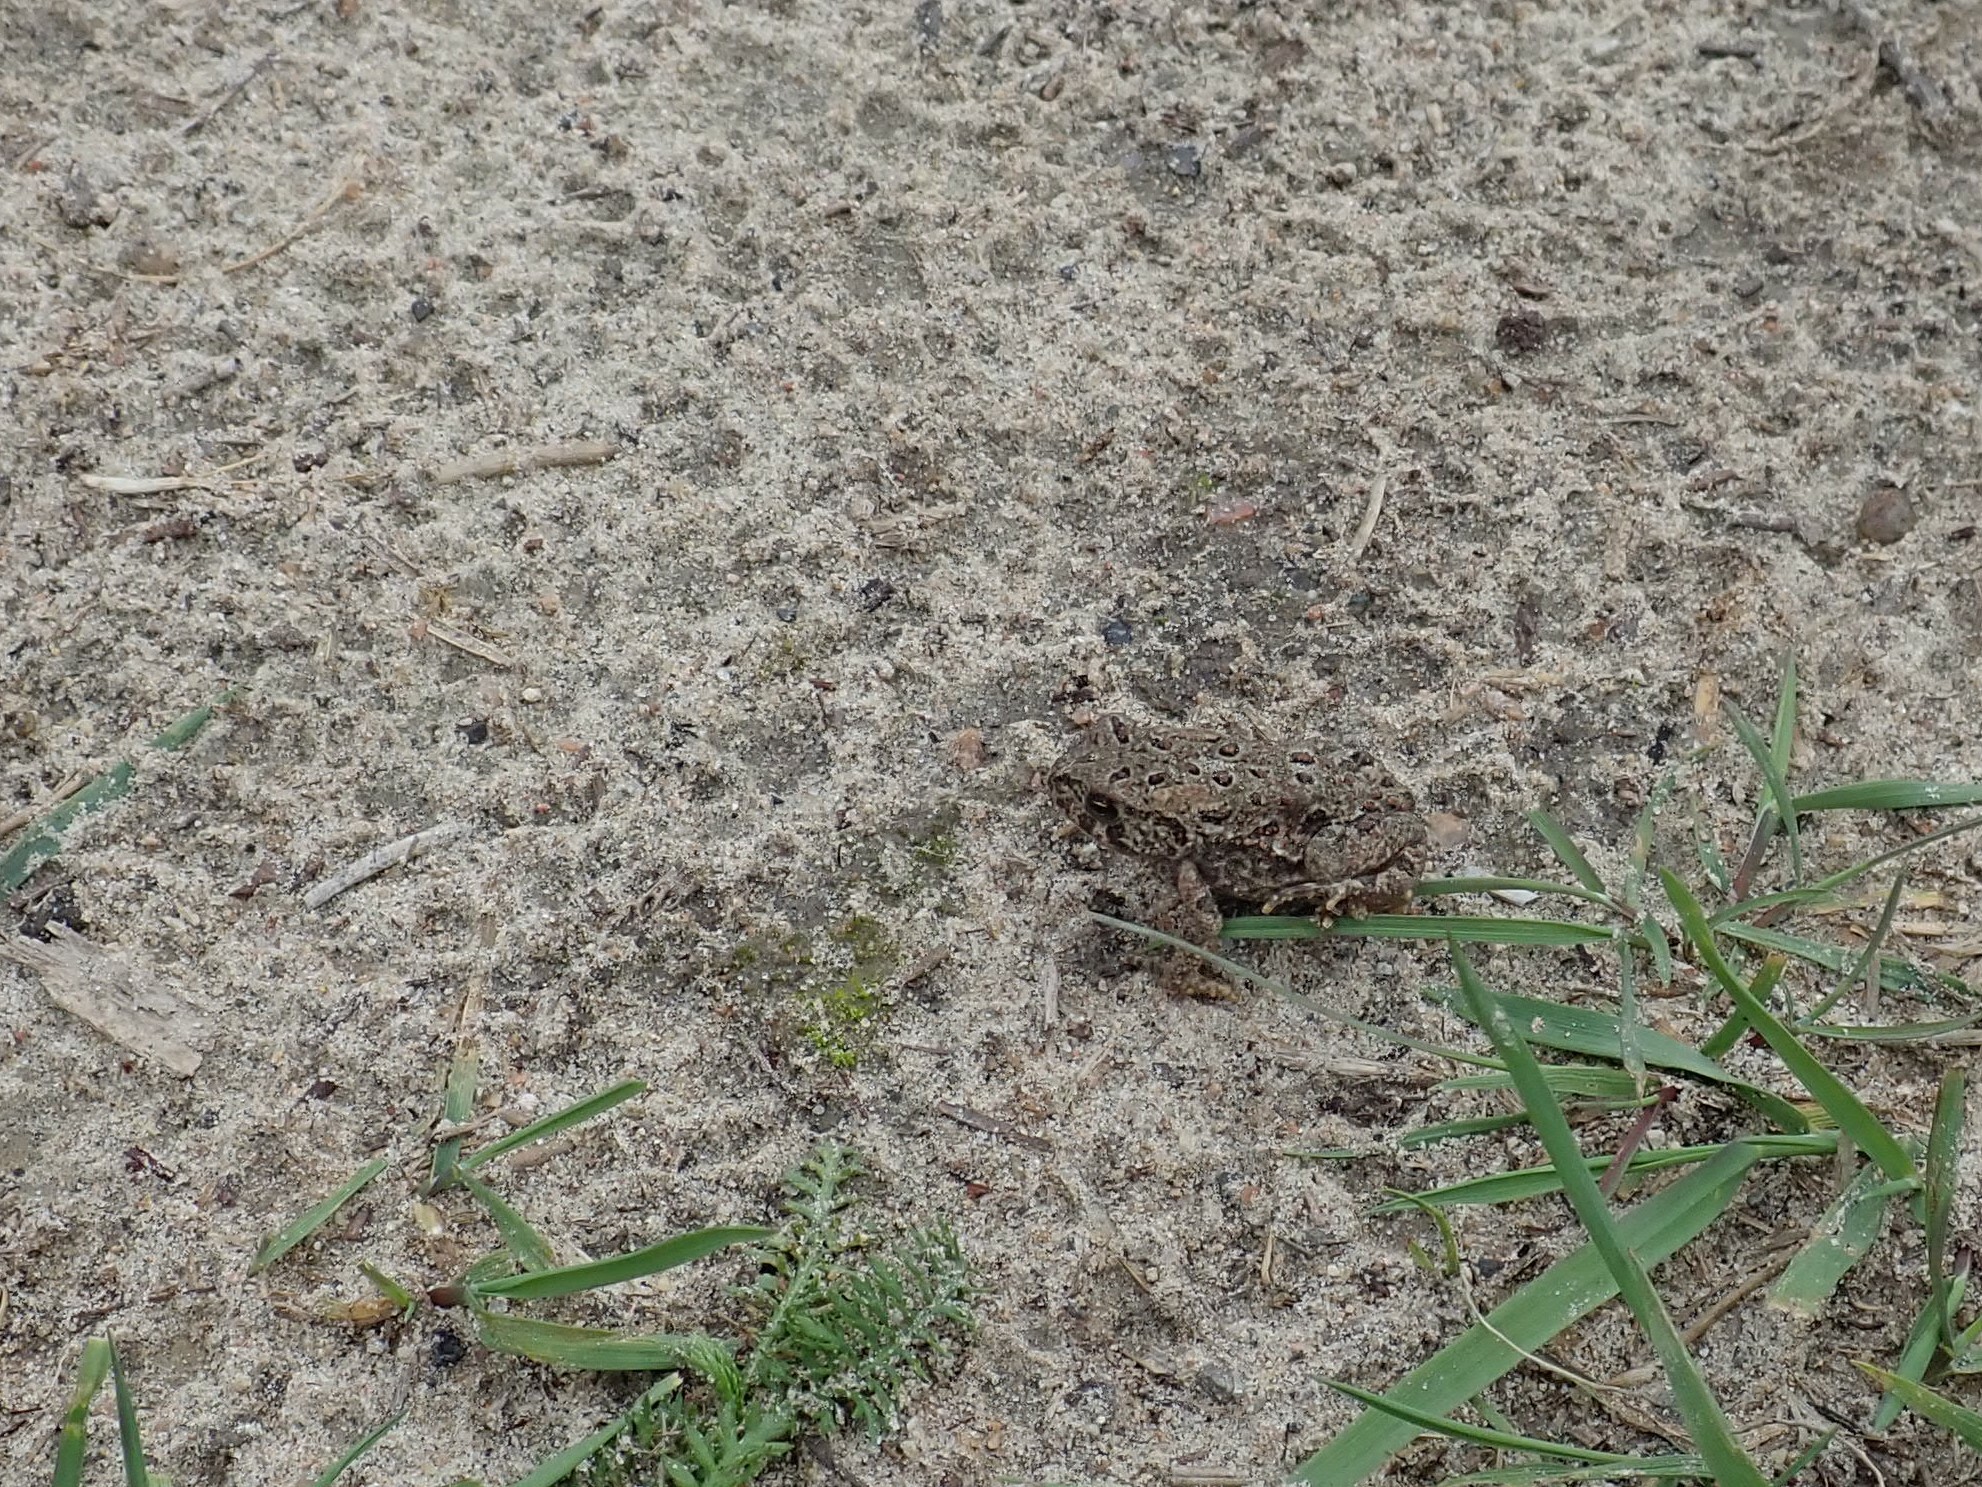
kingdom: Animalia
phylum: Chordata
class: Amphibia
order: Anura
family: Bufonidae
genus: Anaxyrus
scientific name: Anaxyrus americanus
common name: American toad
